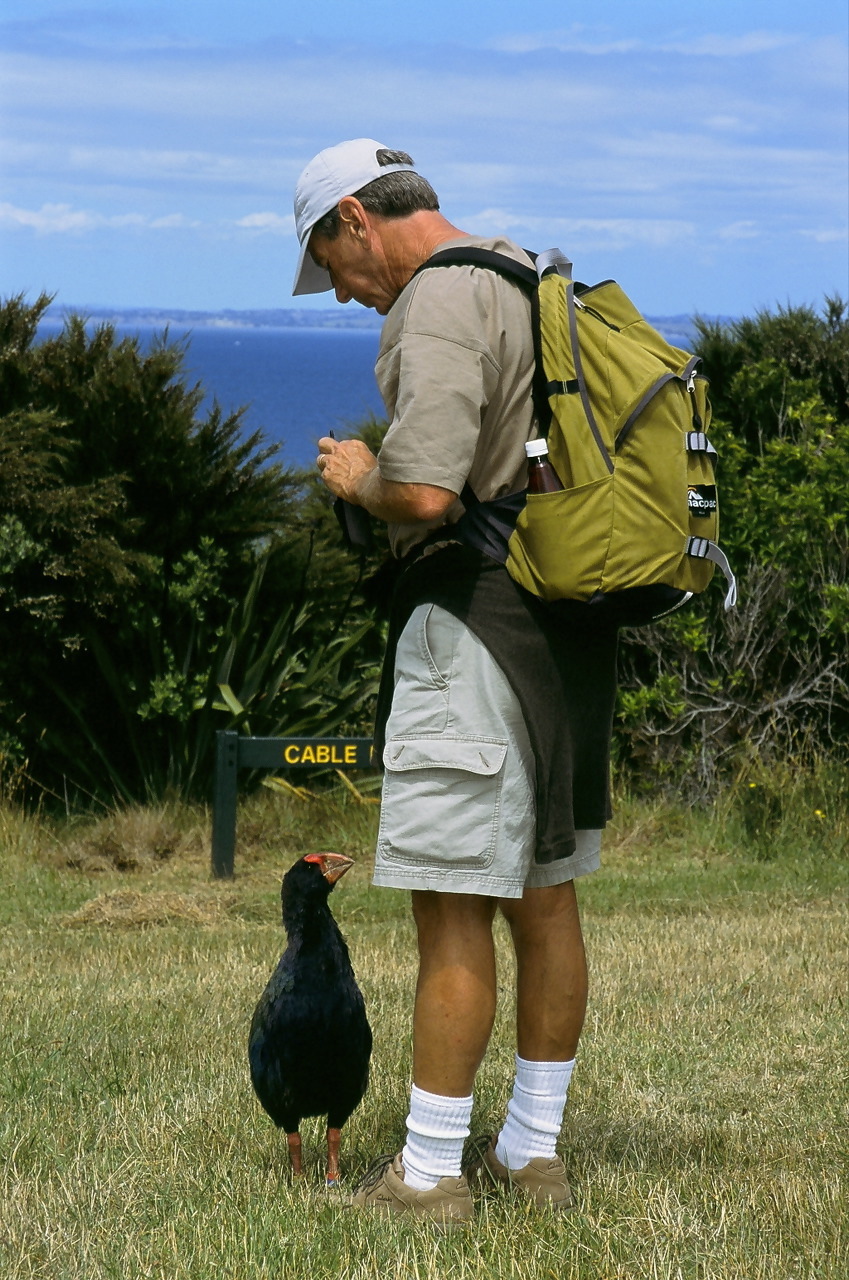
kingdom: Animalia
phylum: Chordata
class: Aves
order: Gruiformes
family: Rallidae
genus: Porphyrio
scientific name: Porphyrio hochstetteri
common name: South island takahe
